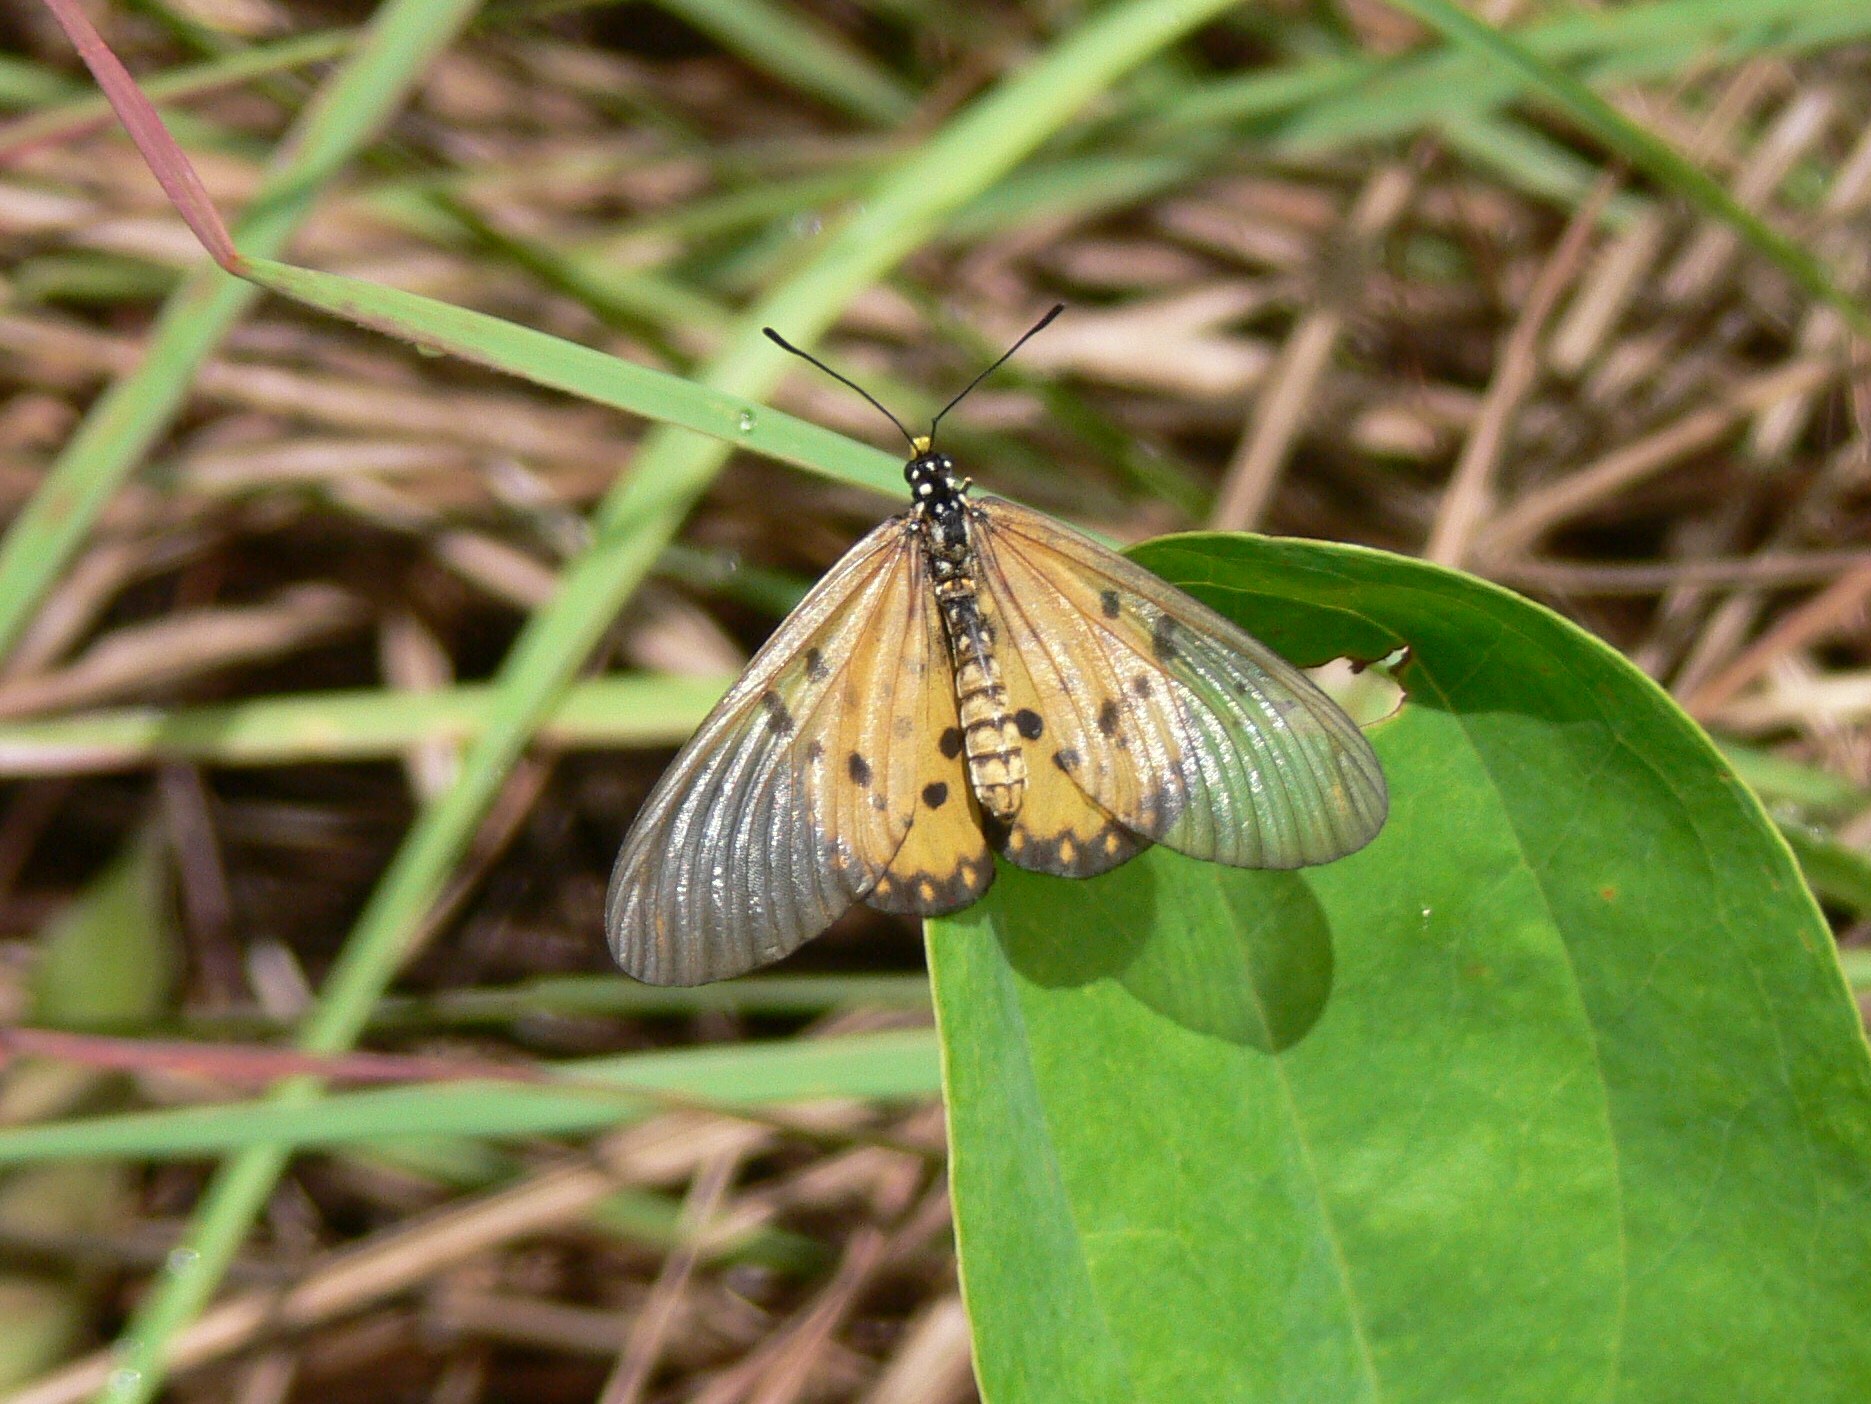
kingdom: Animalia
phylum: Arthropoda
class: Insecta
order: Lepidoptera
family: Nymphalidae
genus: Acraea
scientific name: Acraea neobule
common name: Dancing acraea
